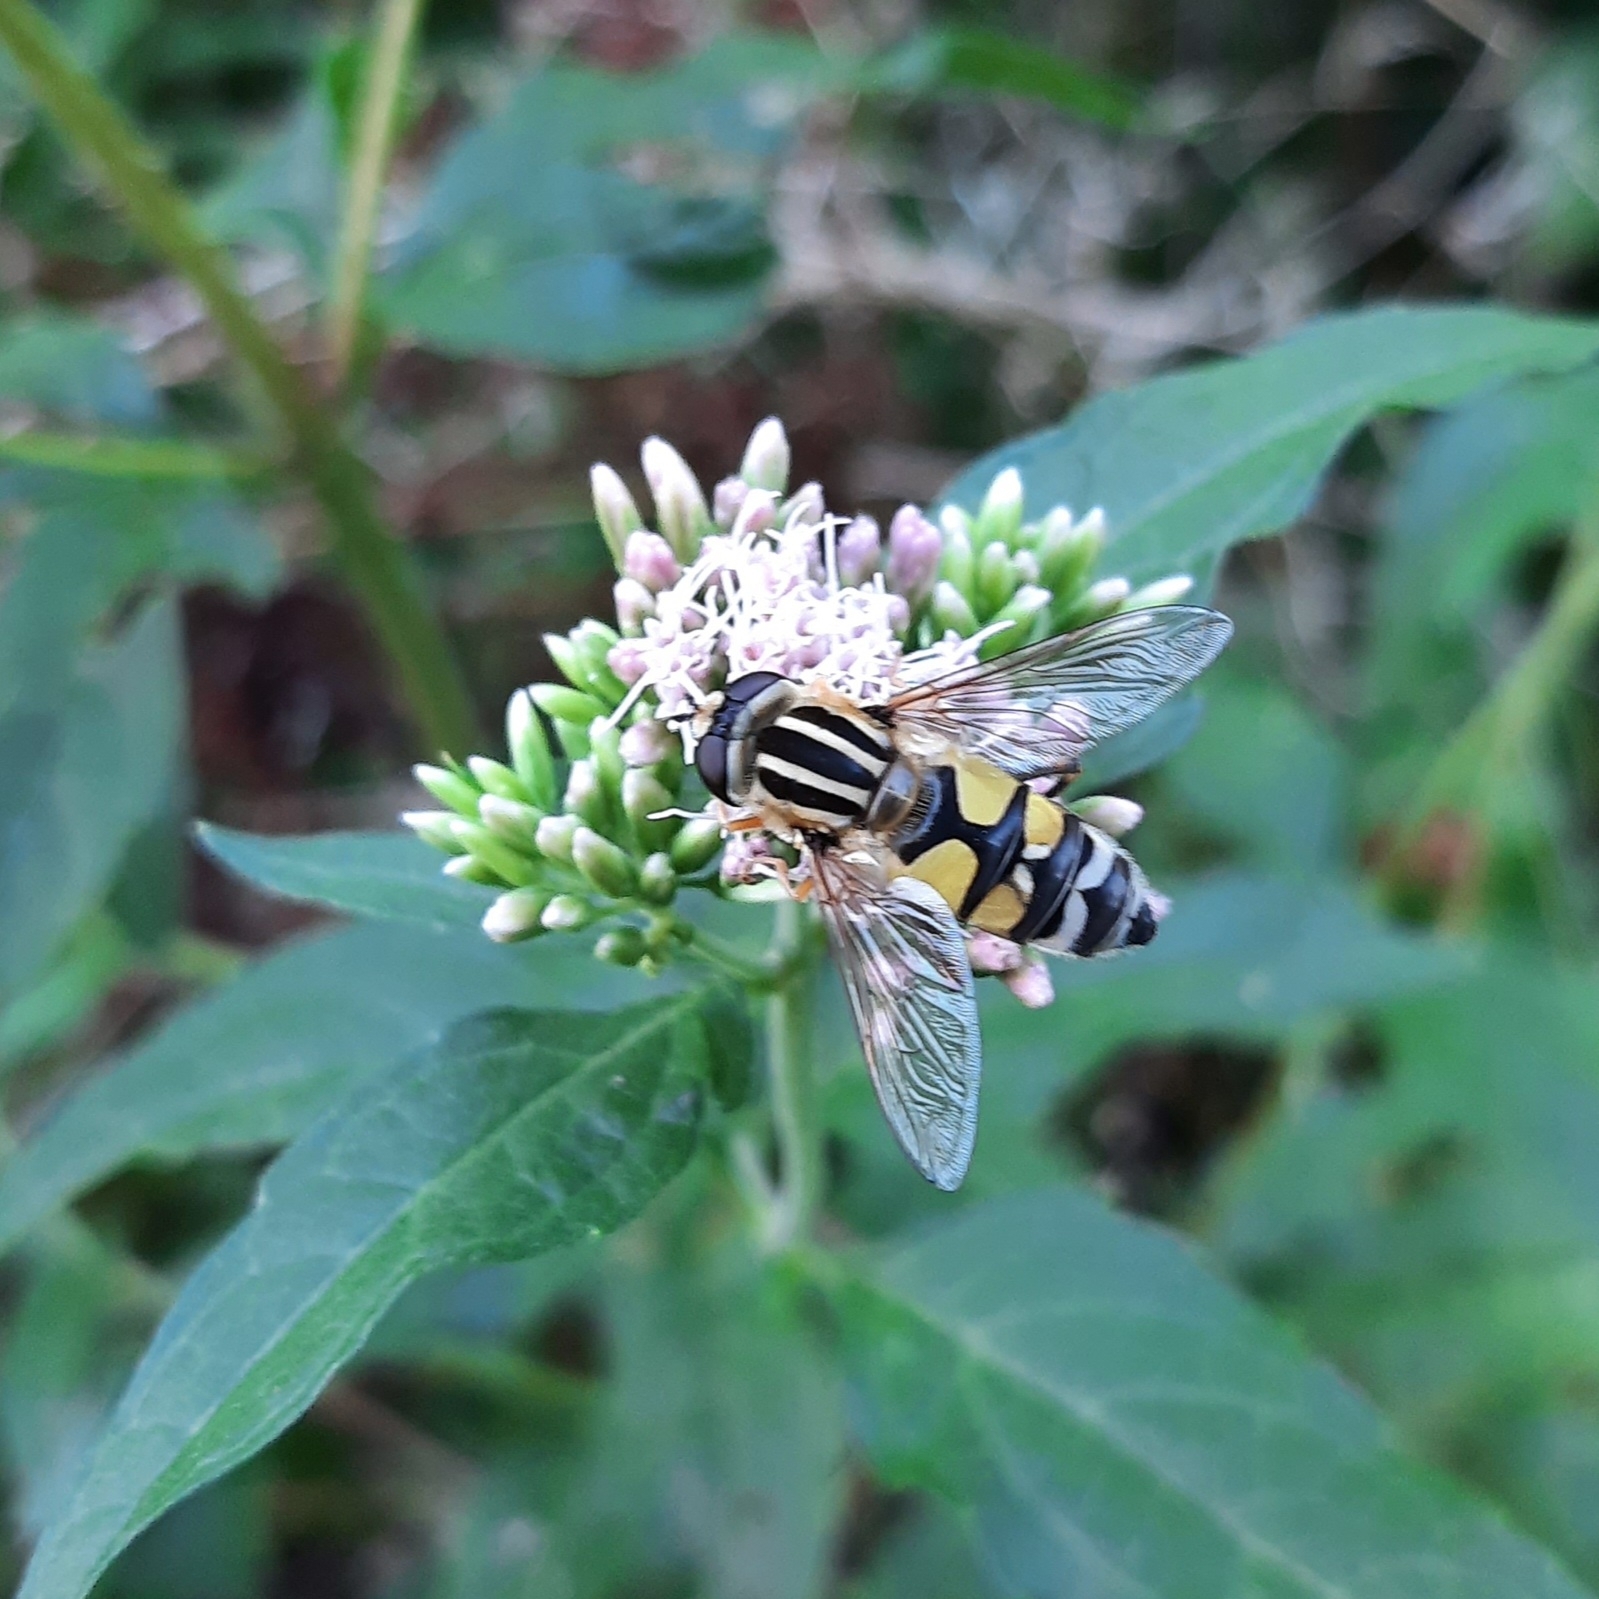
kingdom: Animalia
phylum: Arthropoda
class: Insecta
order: Diptera
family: Syrphidae
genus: Helophilus
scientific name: Helophilus trivittatus
